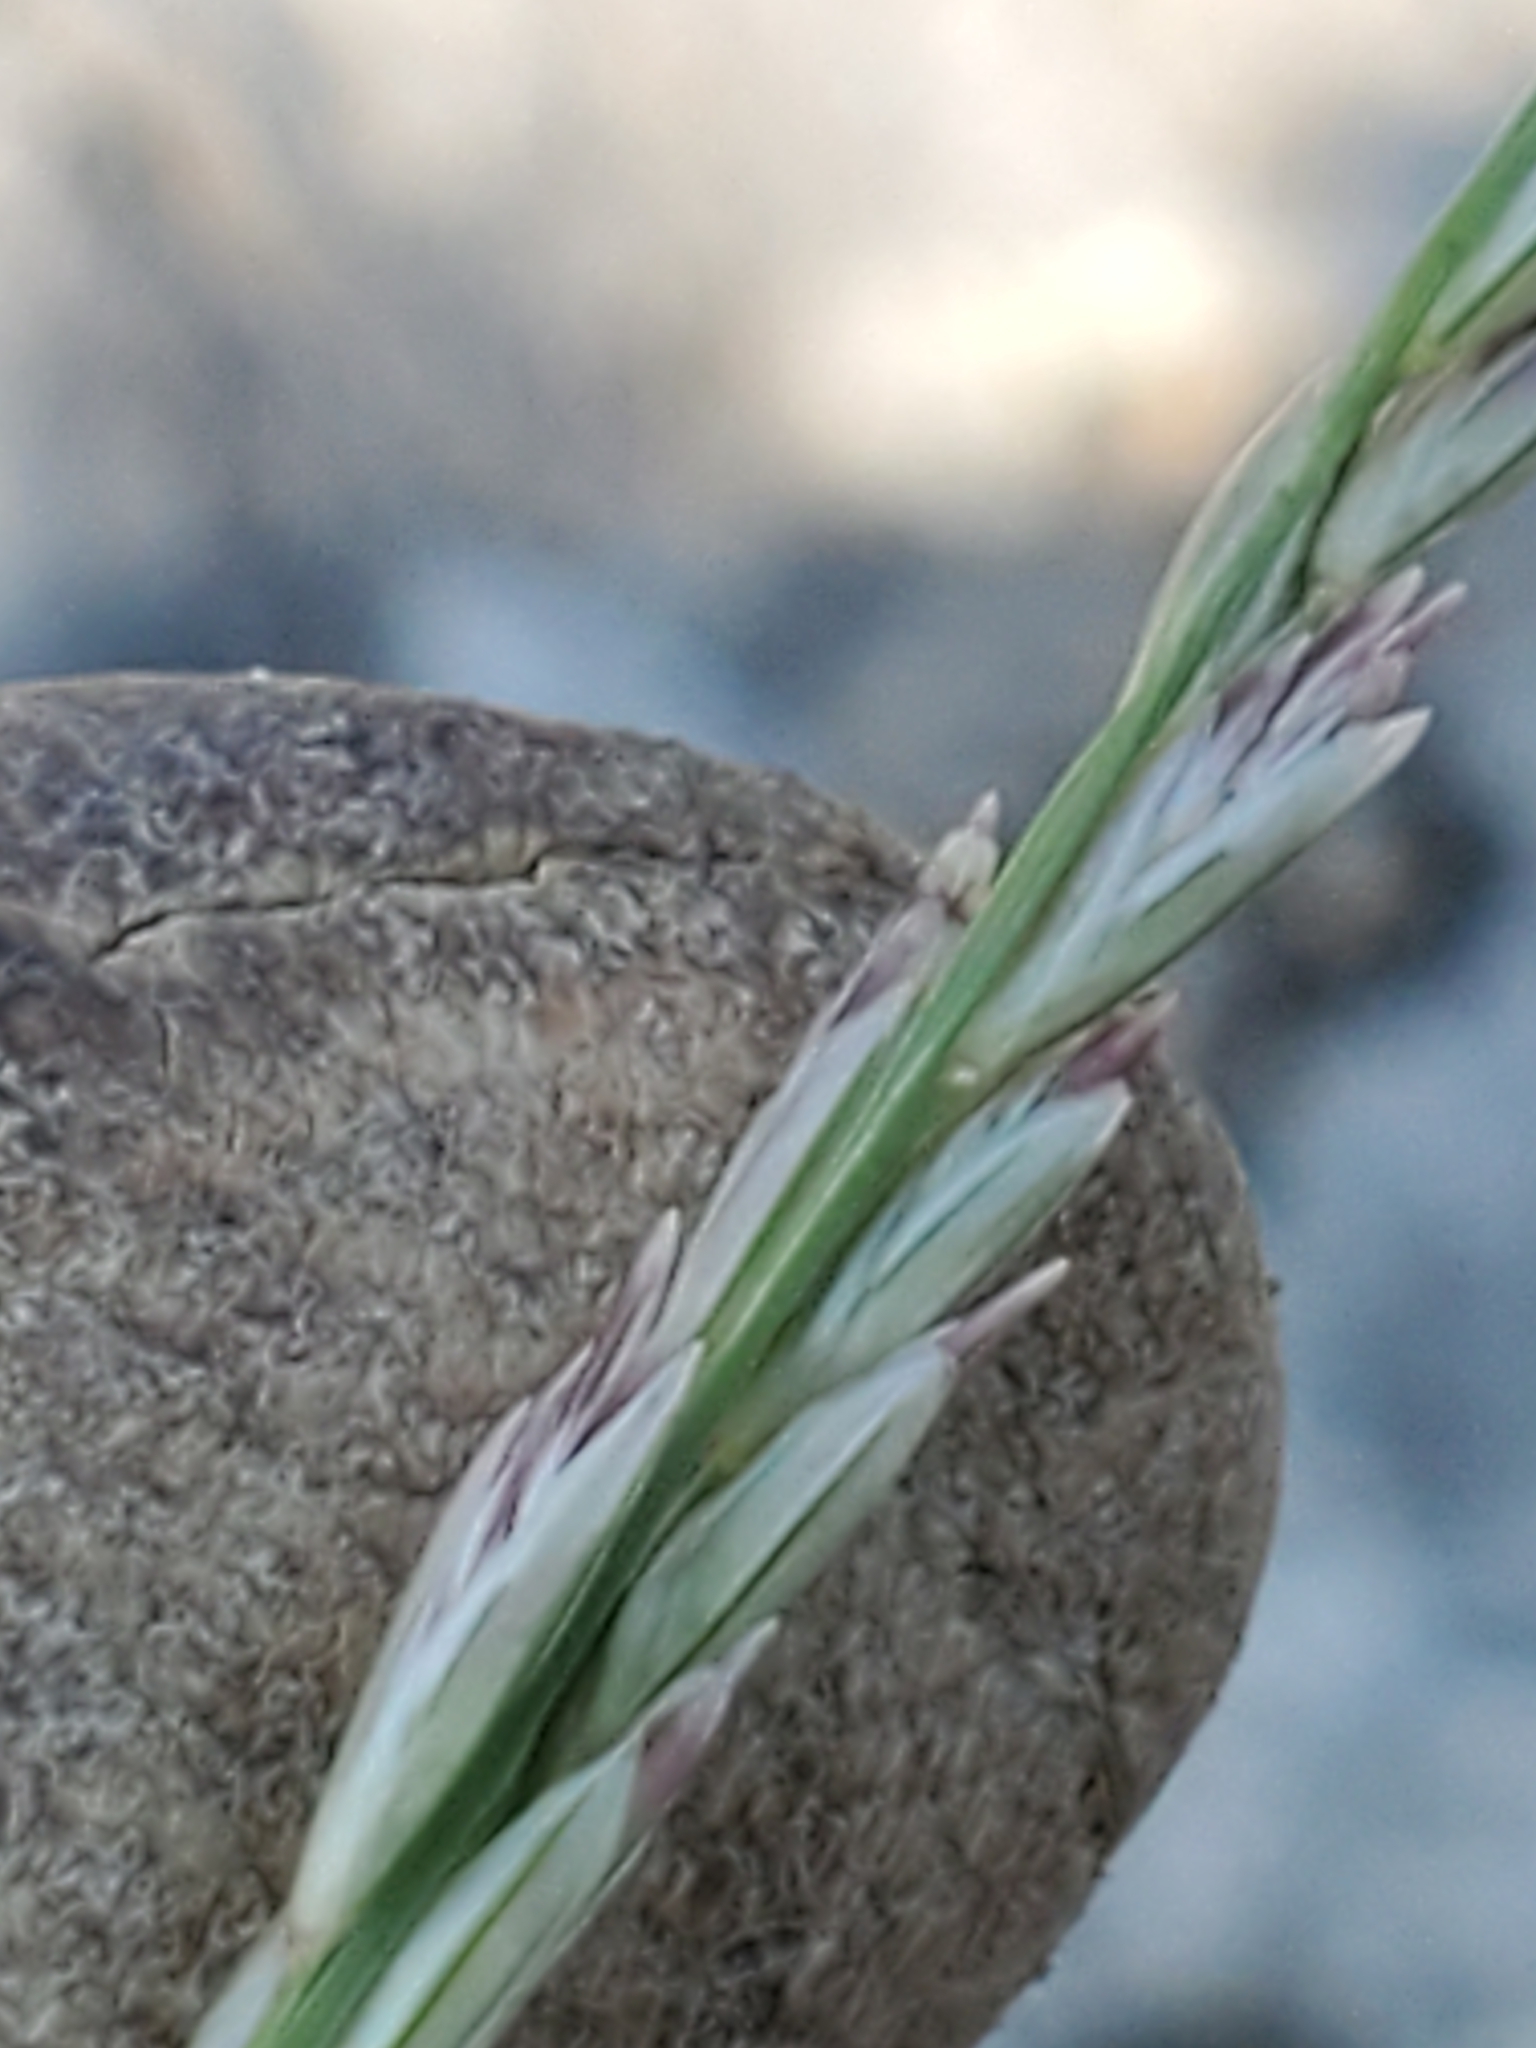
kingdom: Plantae
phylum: Tracheophyta
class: Liliopsida
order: Poales
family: Poaceae
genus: Tridentopsis
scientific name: Tridentopsis mutica
